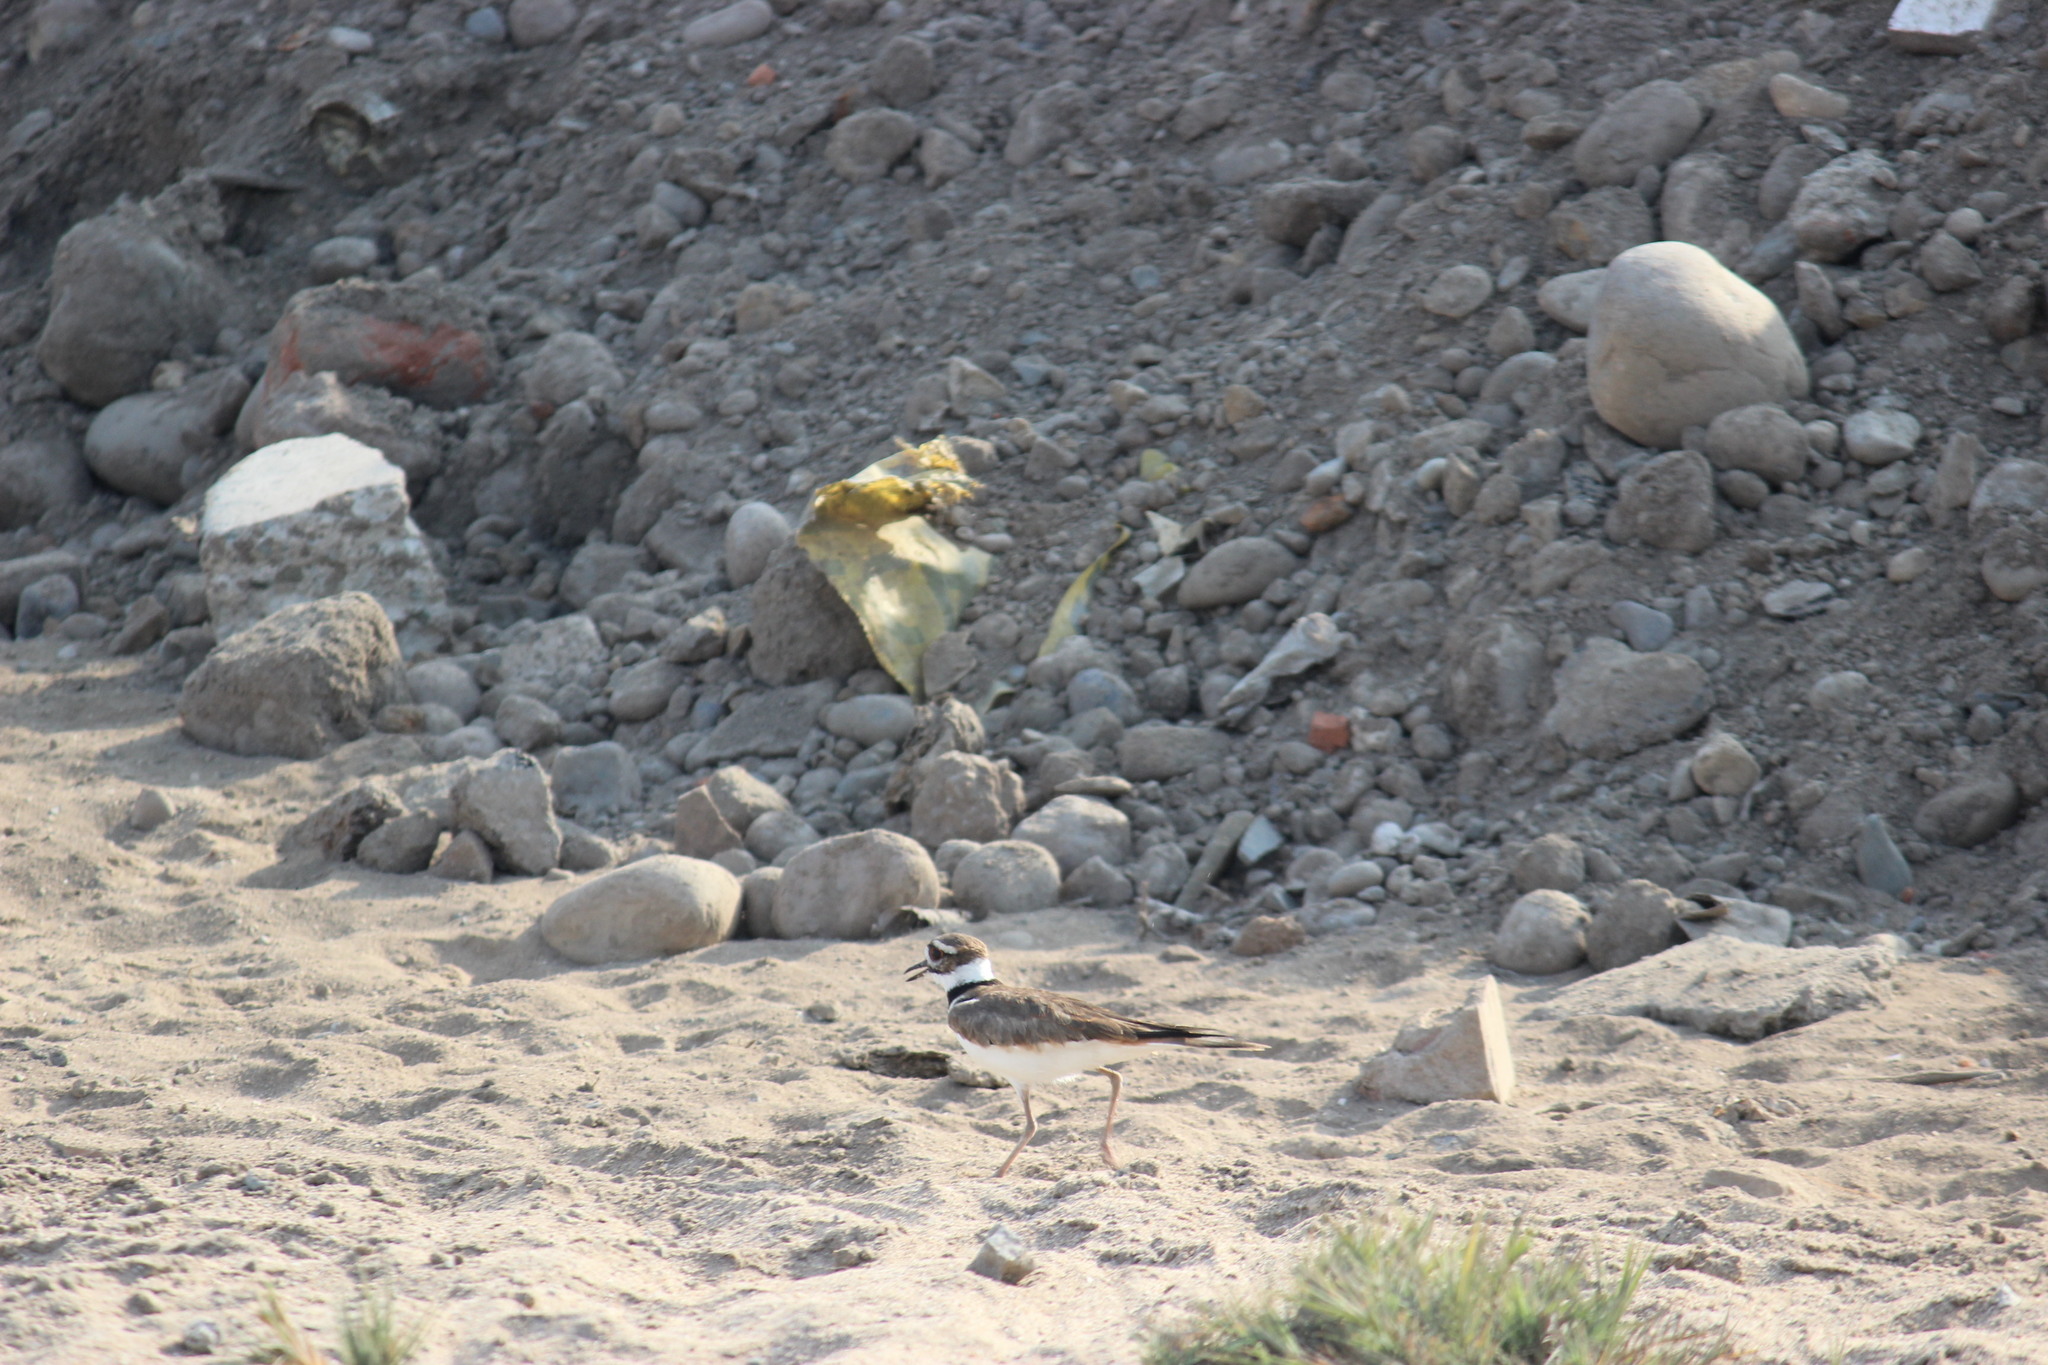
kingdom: Animalia
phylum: Chordata
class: Aves
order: Charadriiformes
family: Charadriidae
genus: Charadrius
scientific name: Charadrius vociferus
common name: Killdeer
